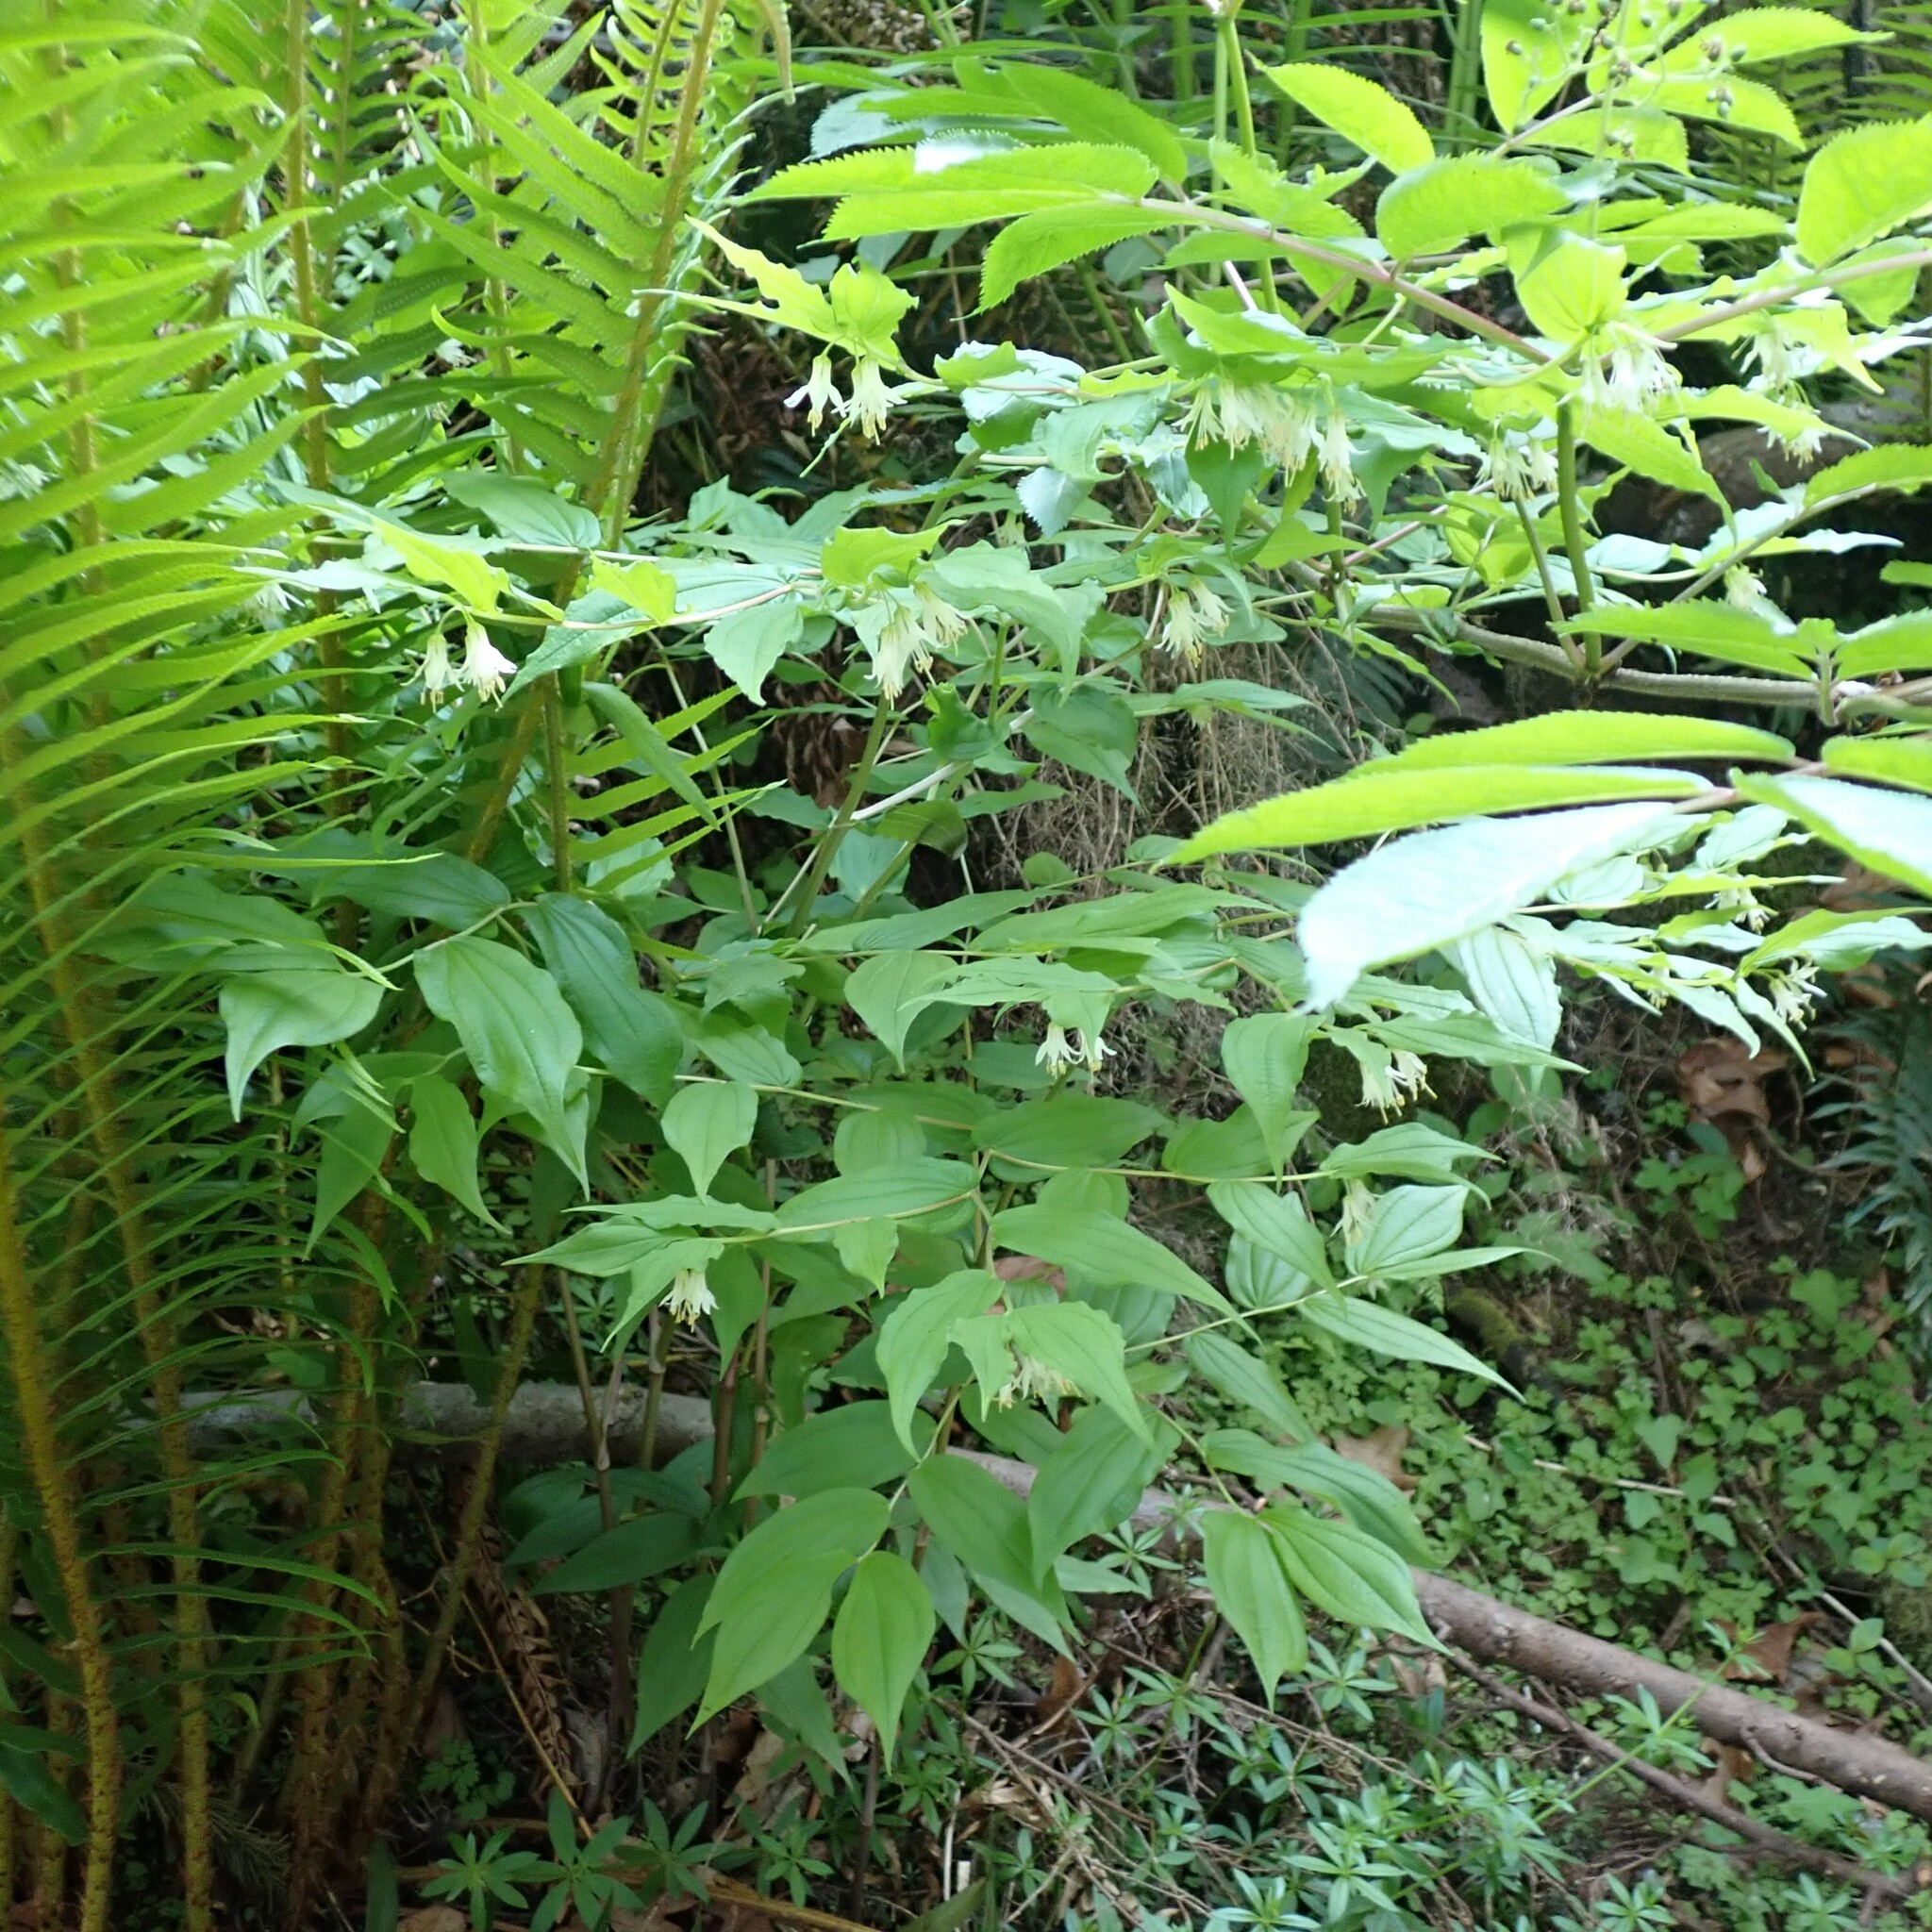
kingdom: Plantae
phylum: Tracheophyta
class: Liliopsida
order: Liliales
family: Liliaceae
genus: Prosartes
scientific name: Prosartes hookeri
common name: Fairy-bells
